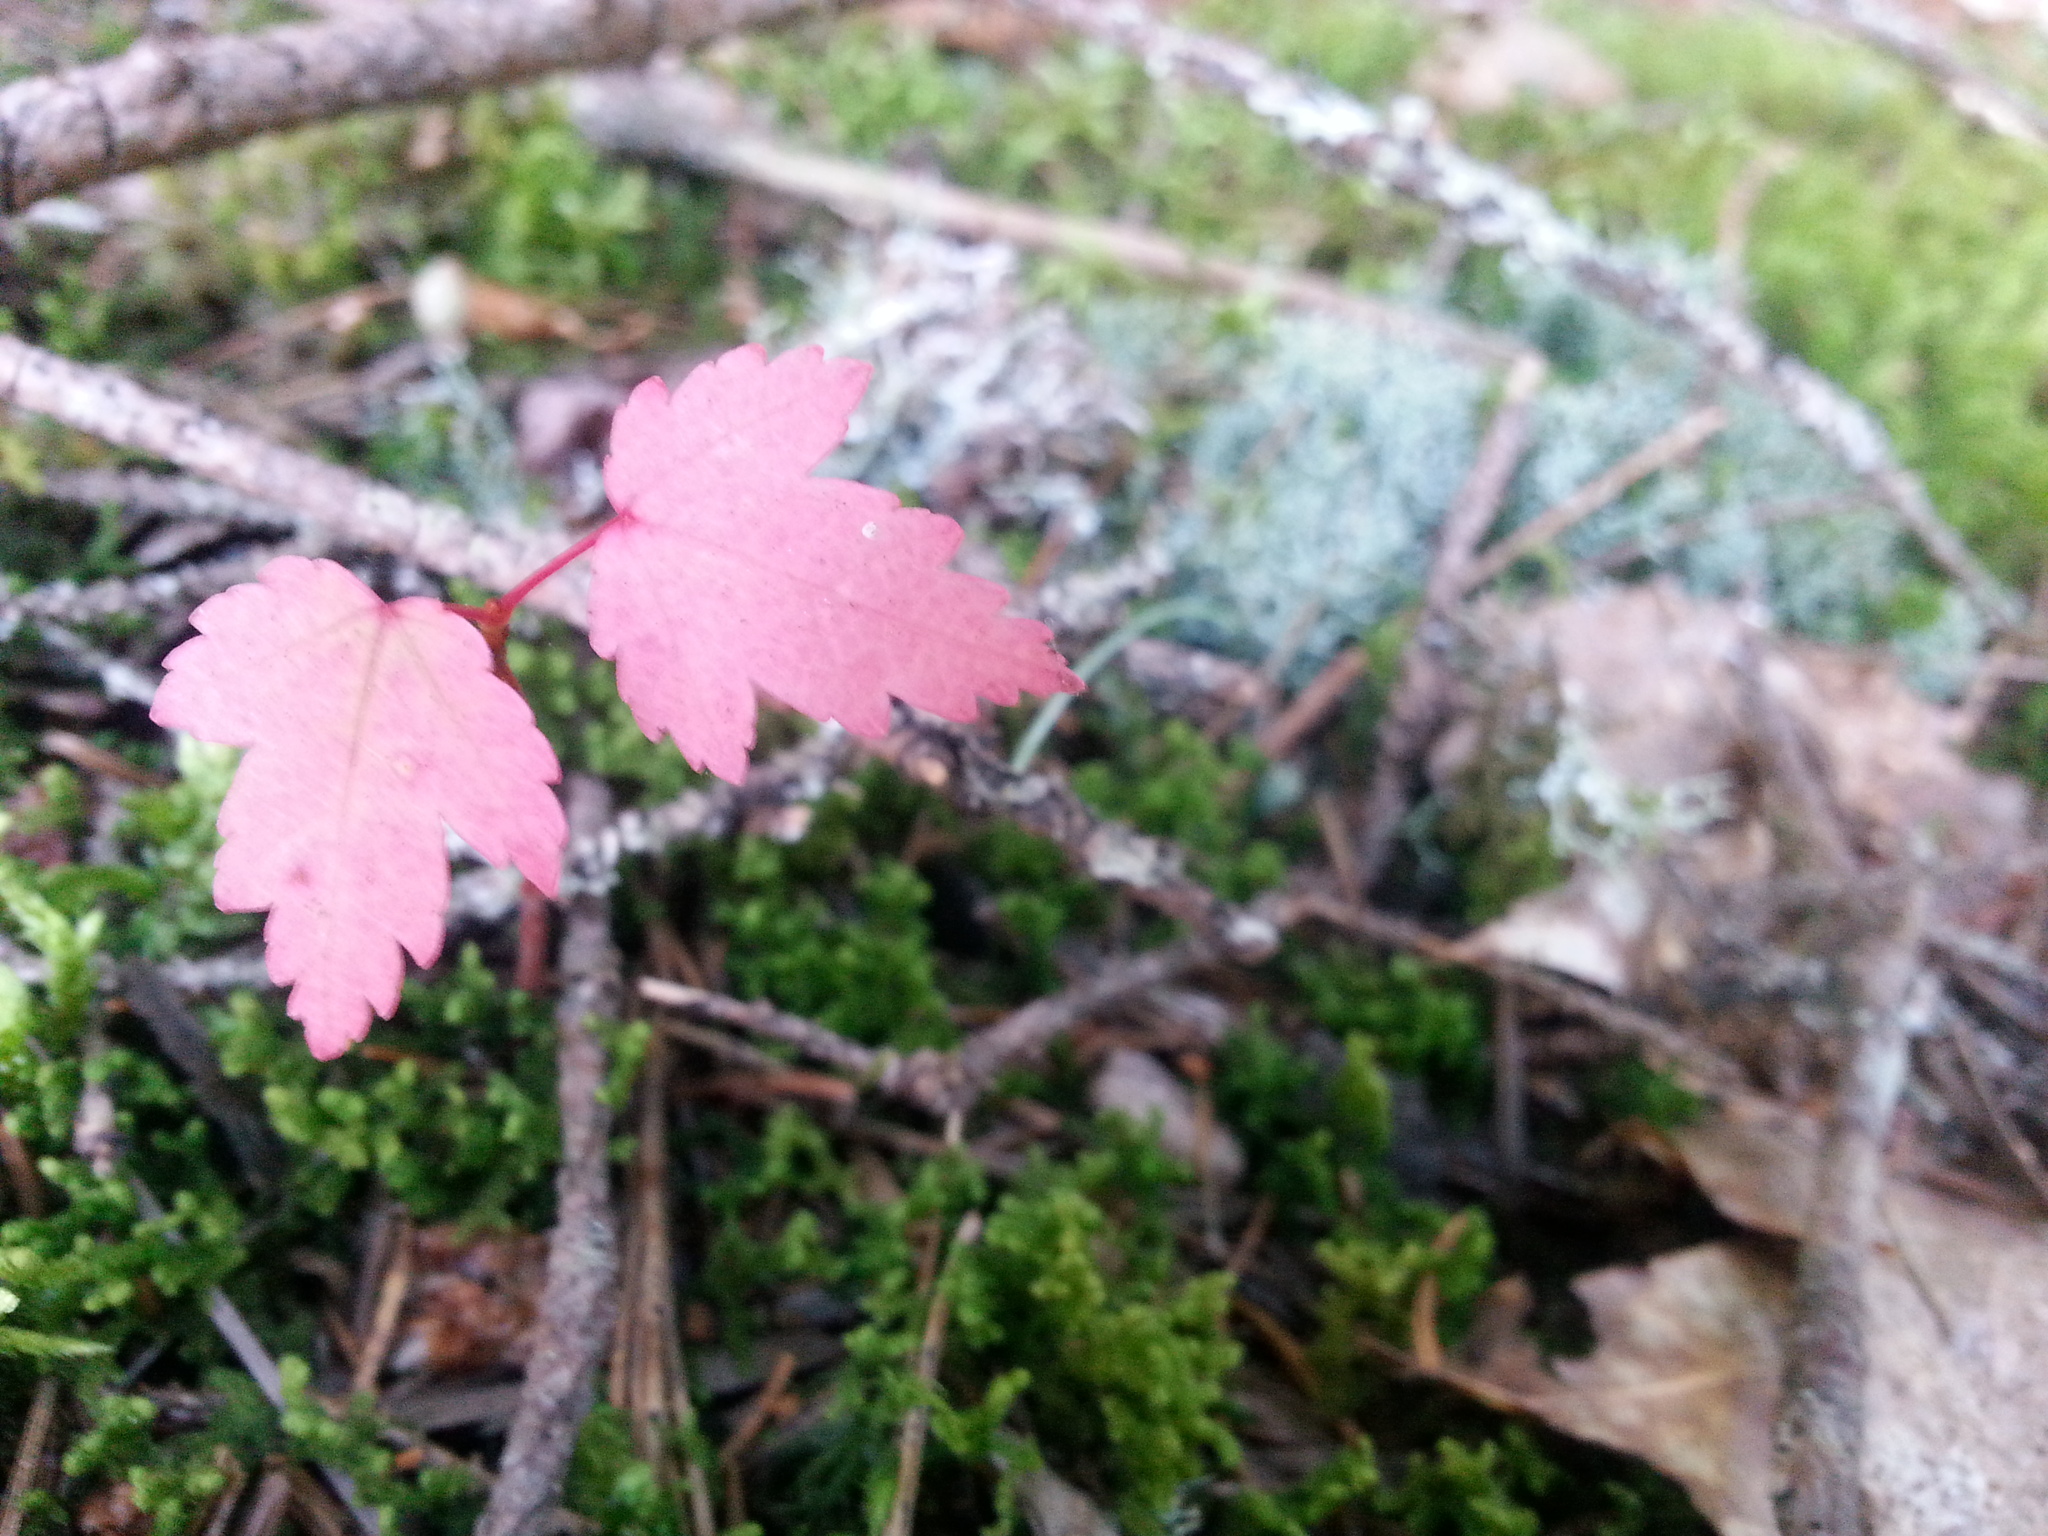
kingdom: Plantae
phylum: Tracheophyta
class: Magnoliopsida
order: Sapindales
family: Sapindaceae
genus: Acer
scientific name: Acer rubrum
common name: Red maple
